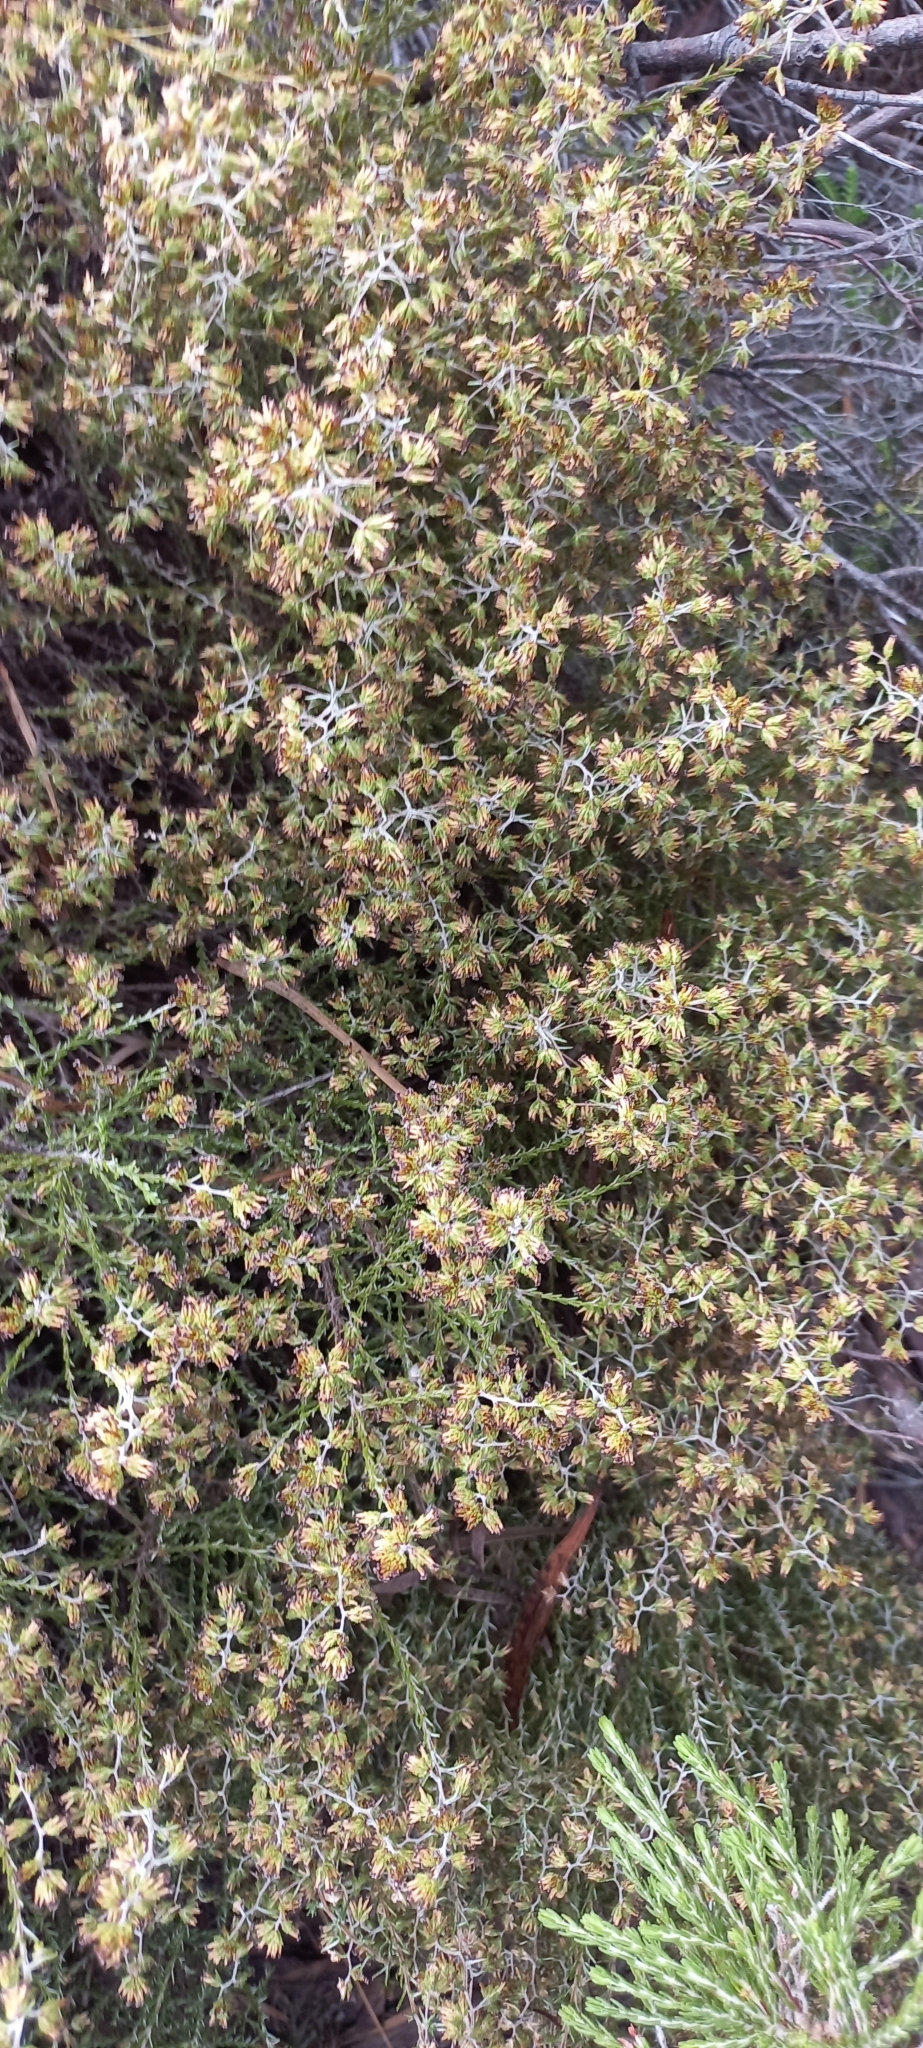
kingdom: Plantae
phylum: Tracheophyta
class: Magnoliopsida
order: Asterales
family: Asteraceae
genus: Myrovernix
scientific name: Myrovernix scaber
